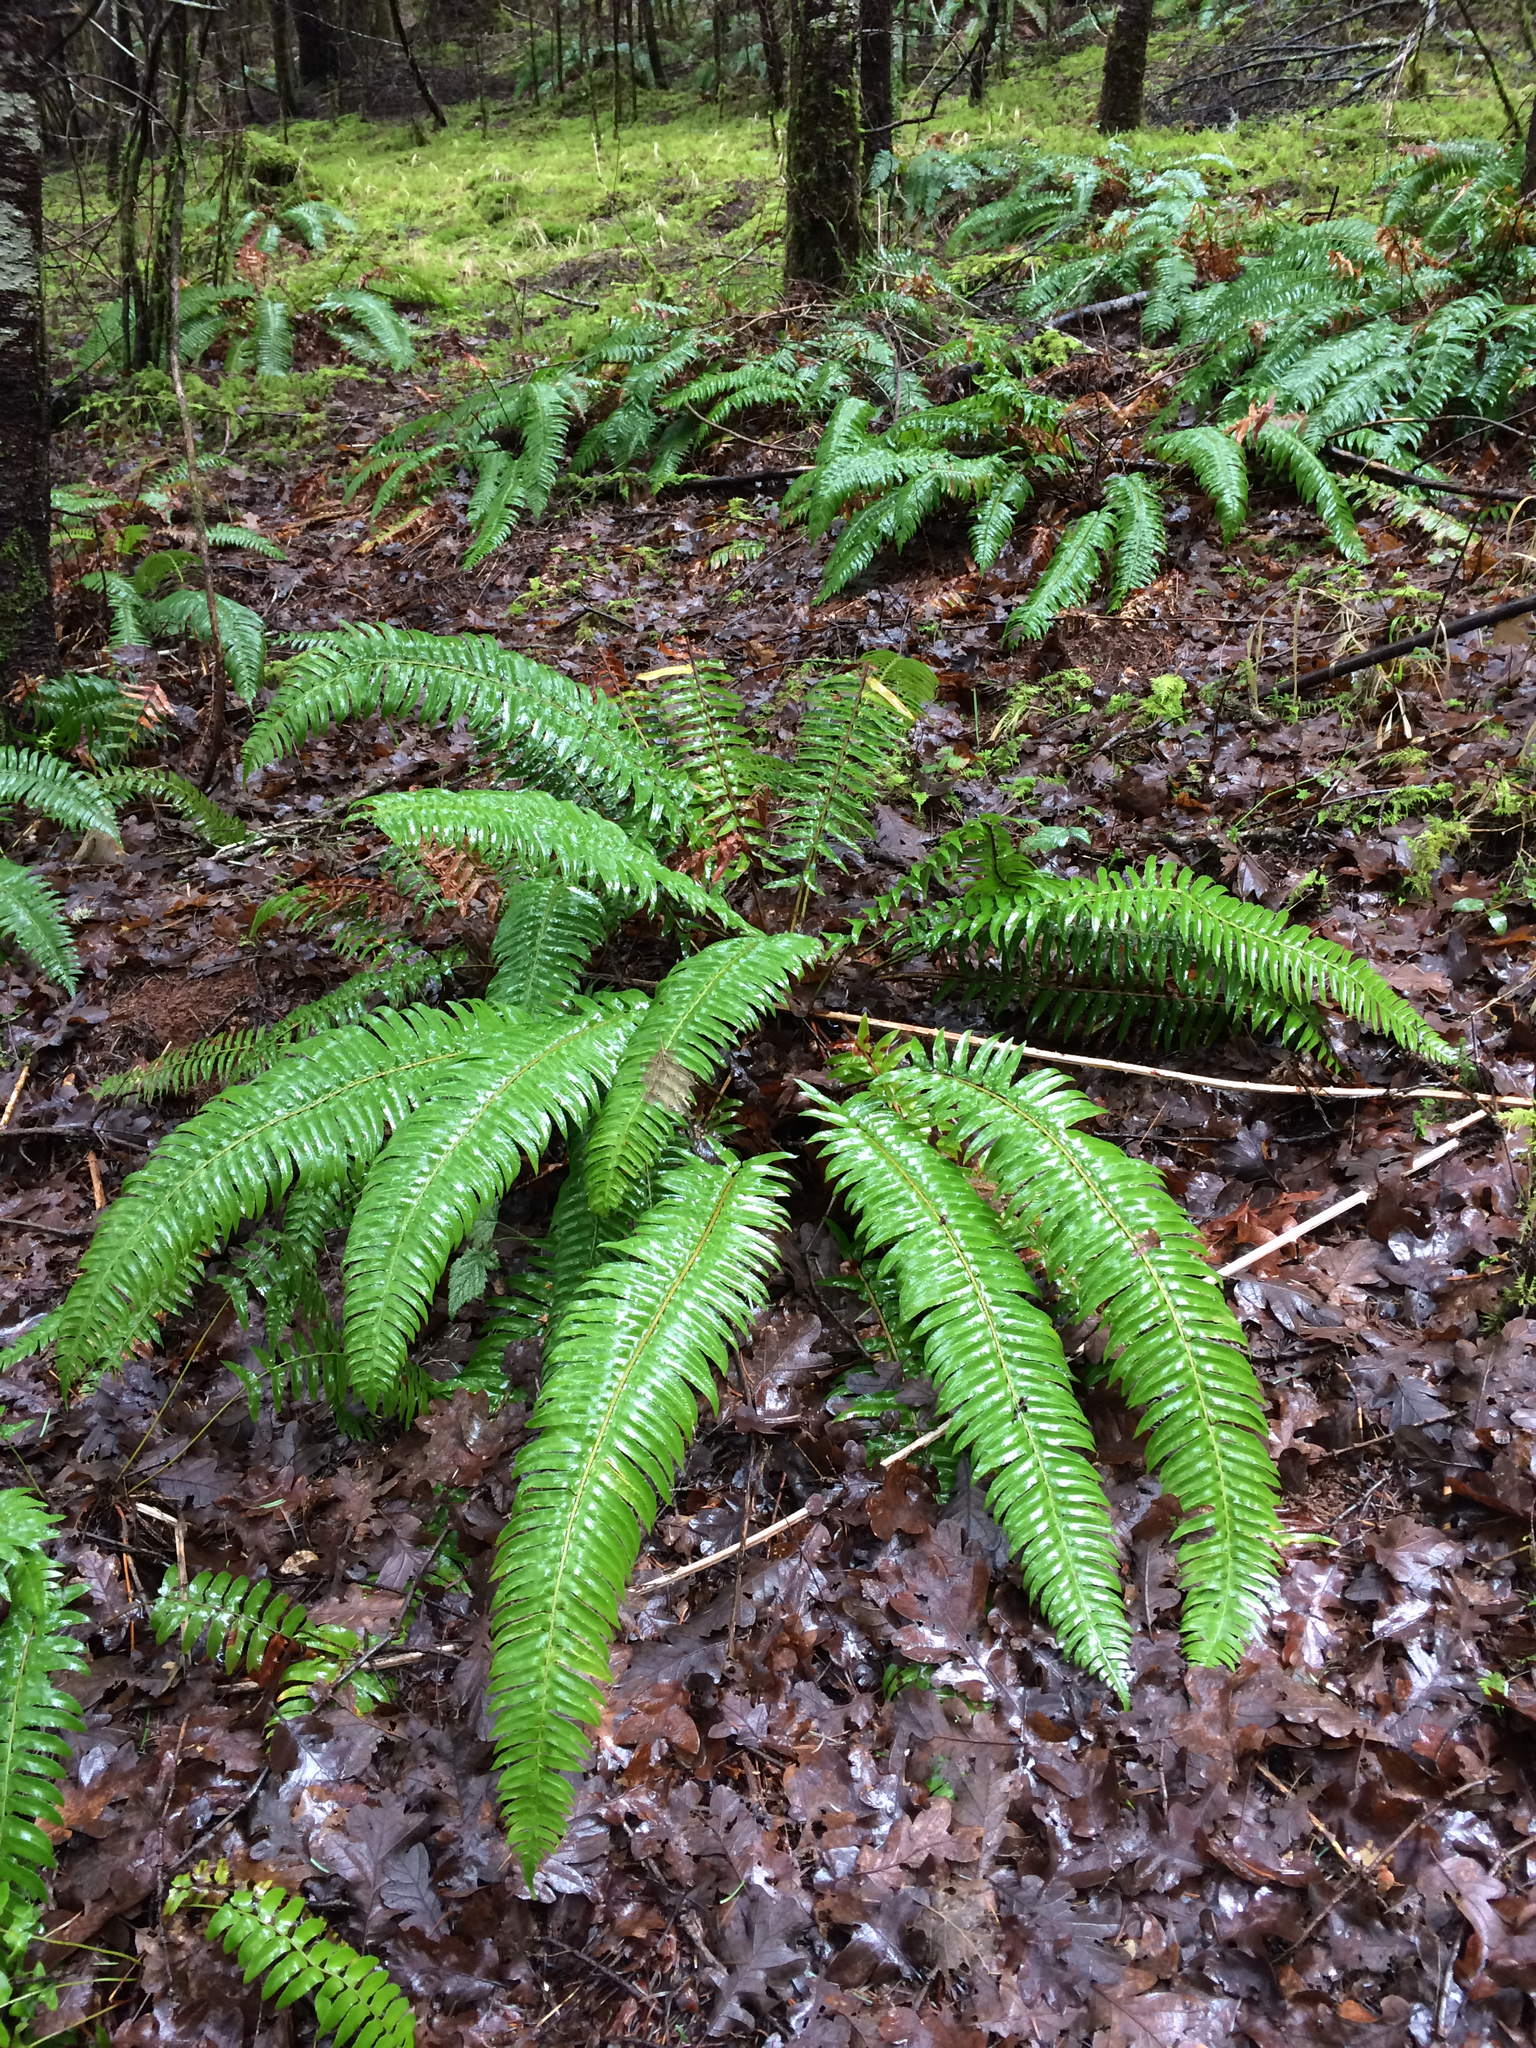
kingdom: Plantae
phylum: Tracheophyta
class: Polypodiopsida
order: Polypodiales
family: Dryopteridaceae
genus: Polystichum
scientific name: Polystichum munitum
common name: Western sword-fern
